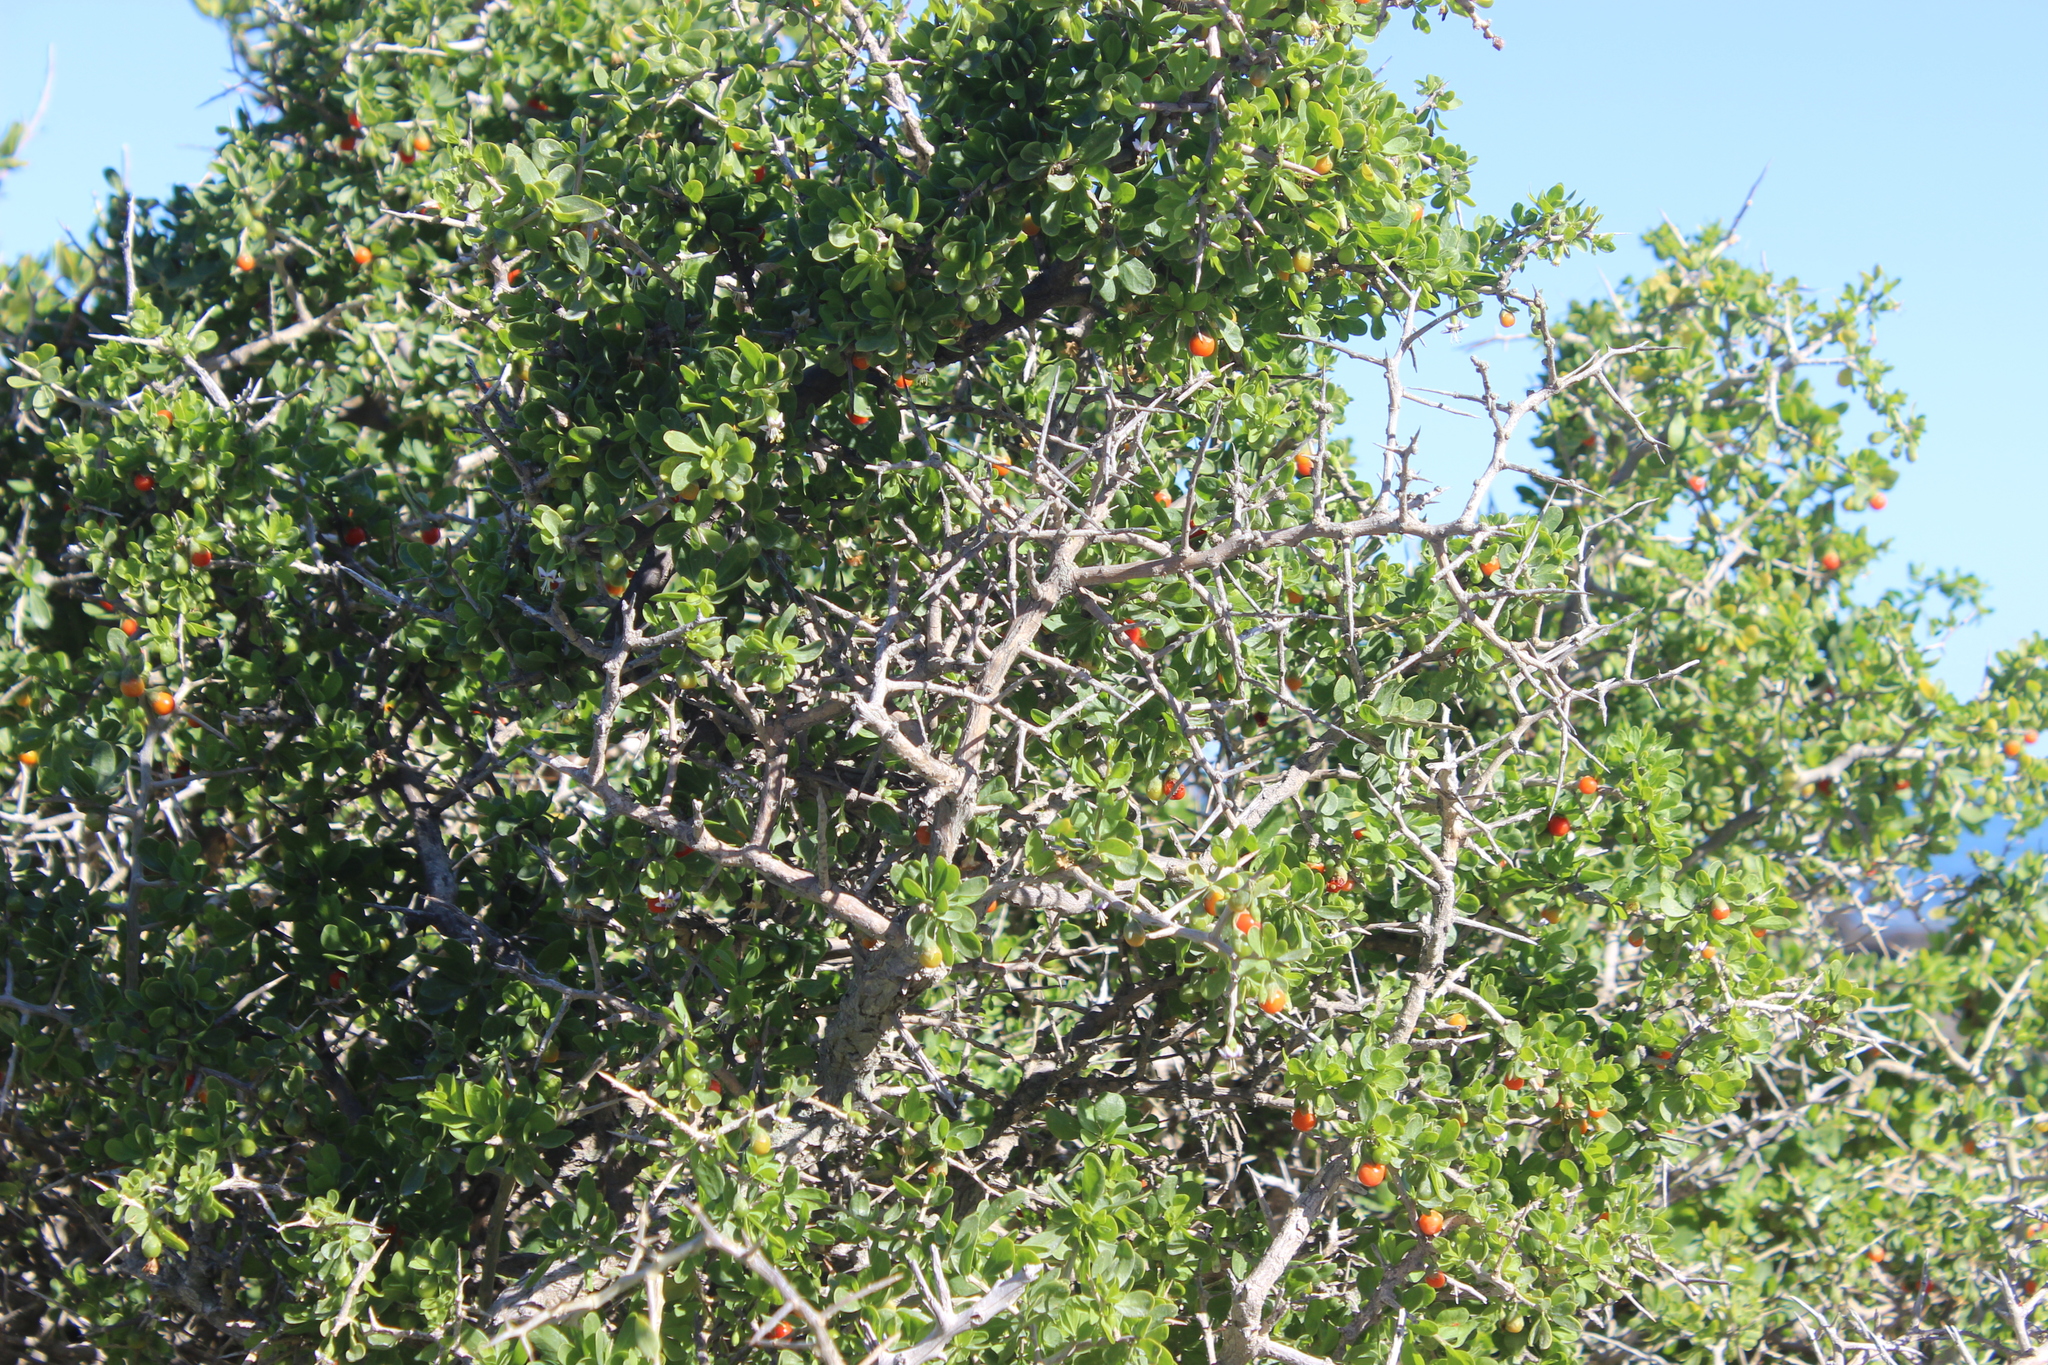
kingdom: Plantae
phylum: Tracheophyta
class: Magnoliopsida
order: Solanales
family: Solanaceae
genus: Lycium
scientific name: Lycium ferocissimum
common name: African boxthorn
